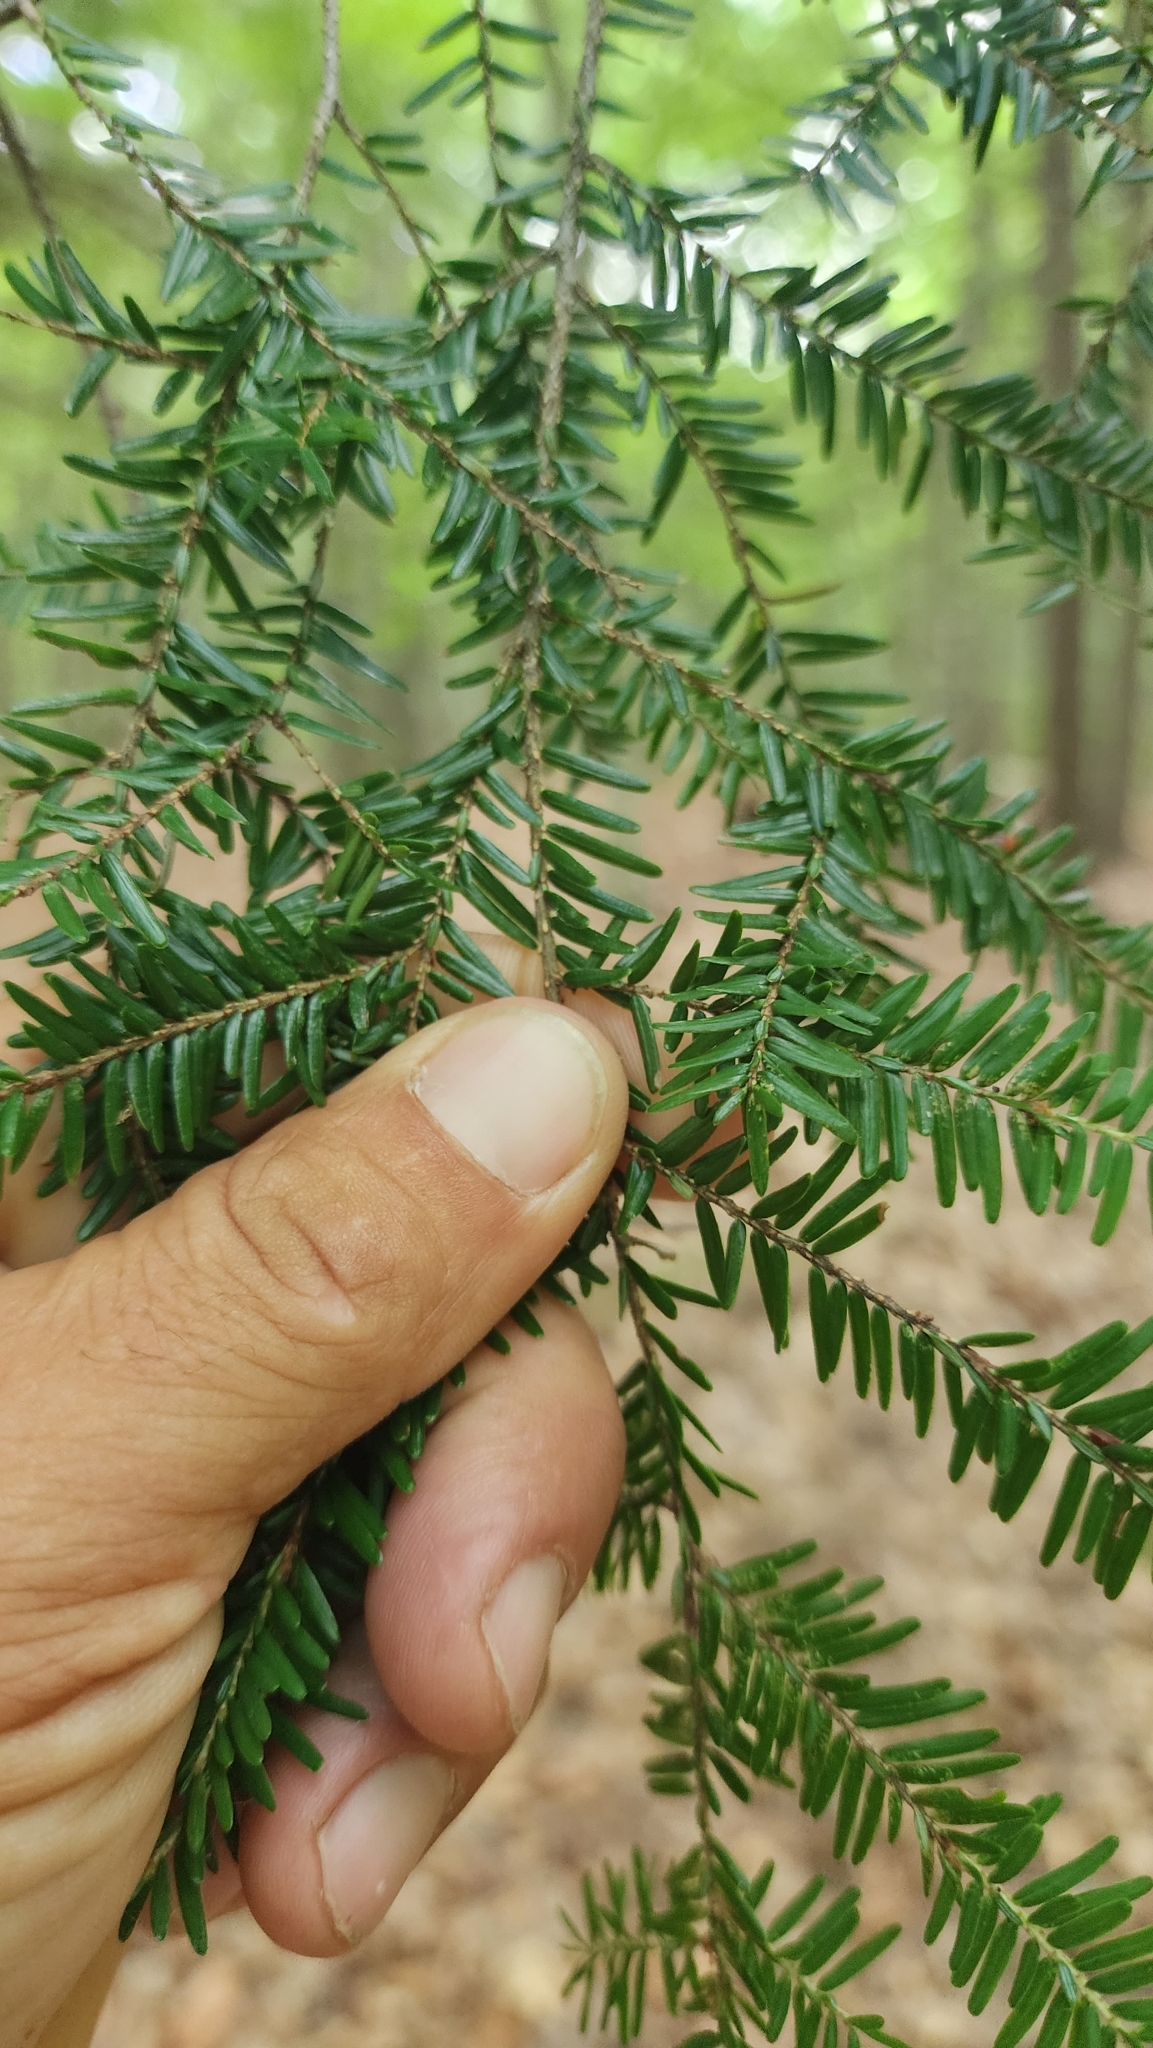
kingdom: Plantae
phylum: Tracheophyta
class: Pinopsida
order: Pinales
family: Pinaceae
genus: Tsuga
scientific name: Tsuga canadensis
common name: Eastern hemlock
